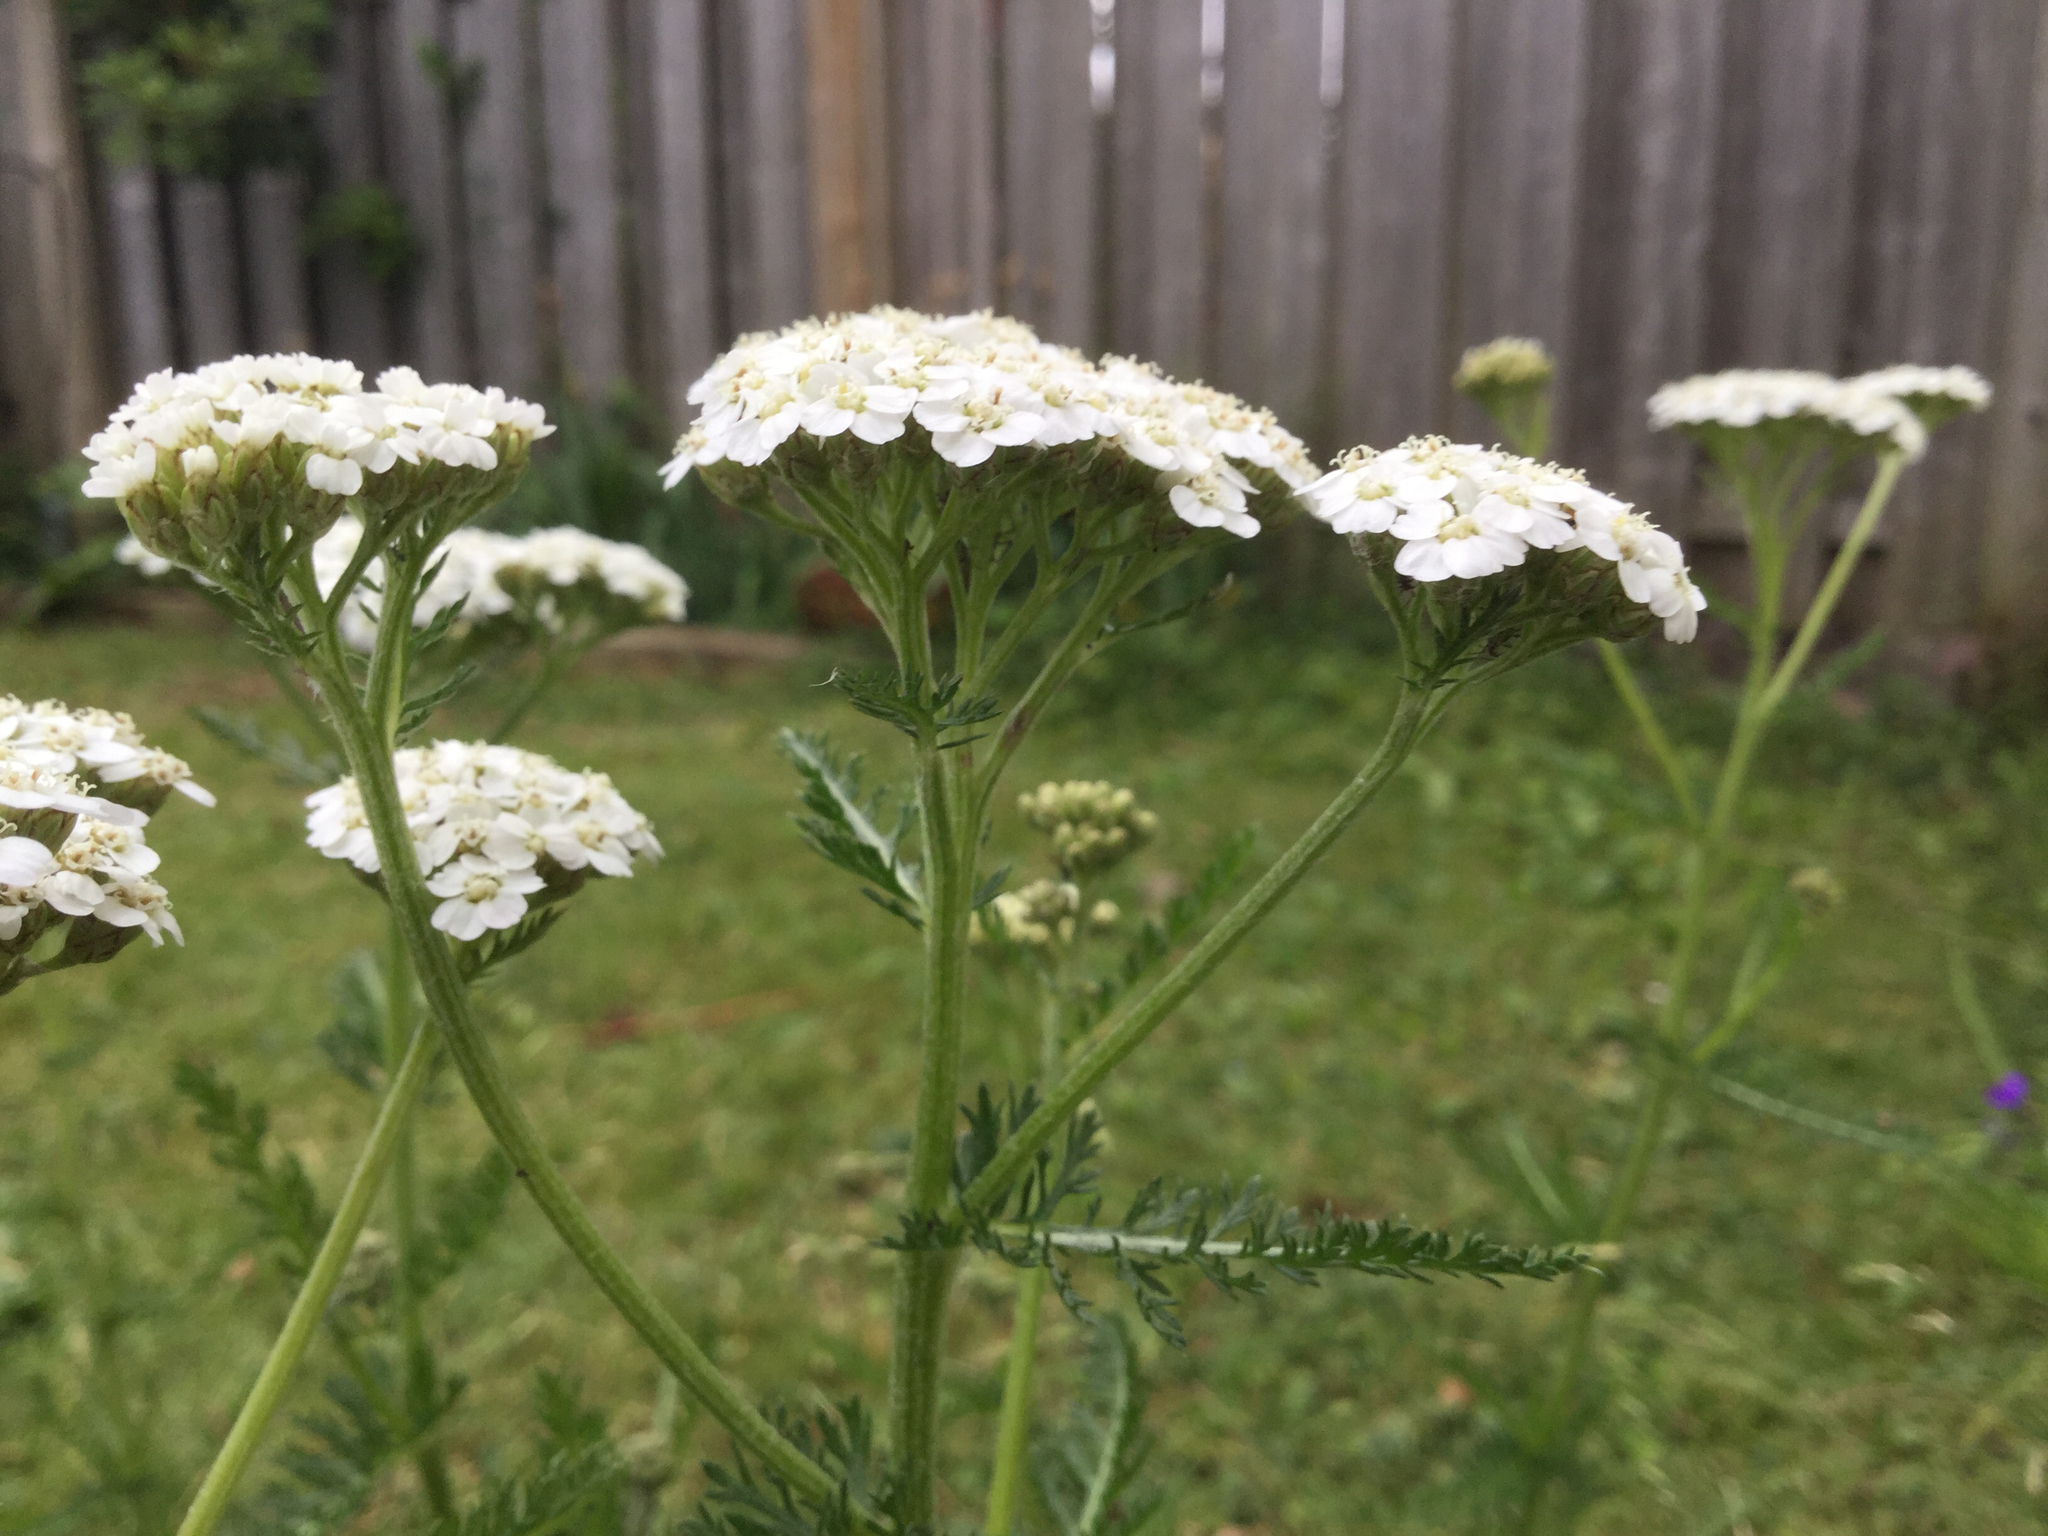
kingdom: Plantae
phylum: Tracheophyta
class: Magnoliopsida
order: Asterales
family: Asteraceae
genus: Achillea
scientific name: Achillea millefolium
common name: Yarrow
